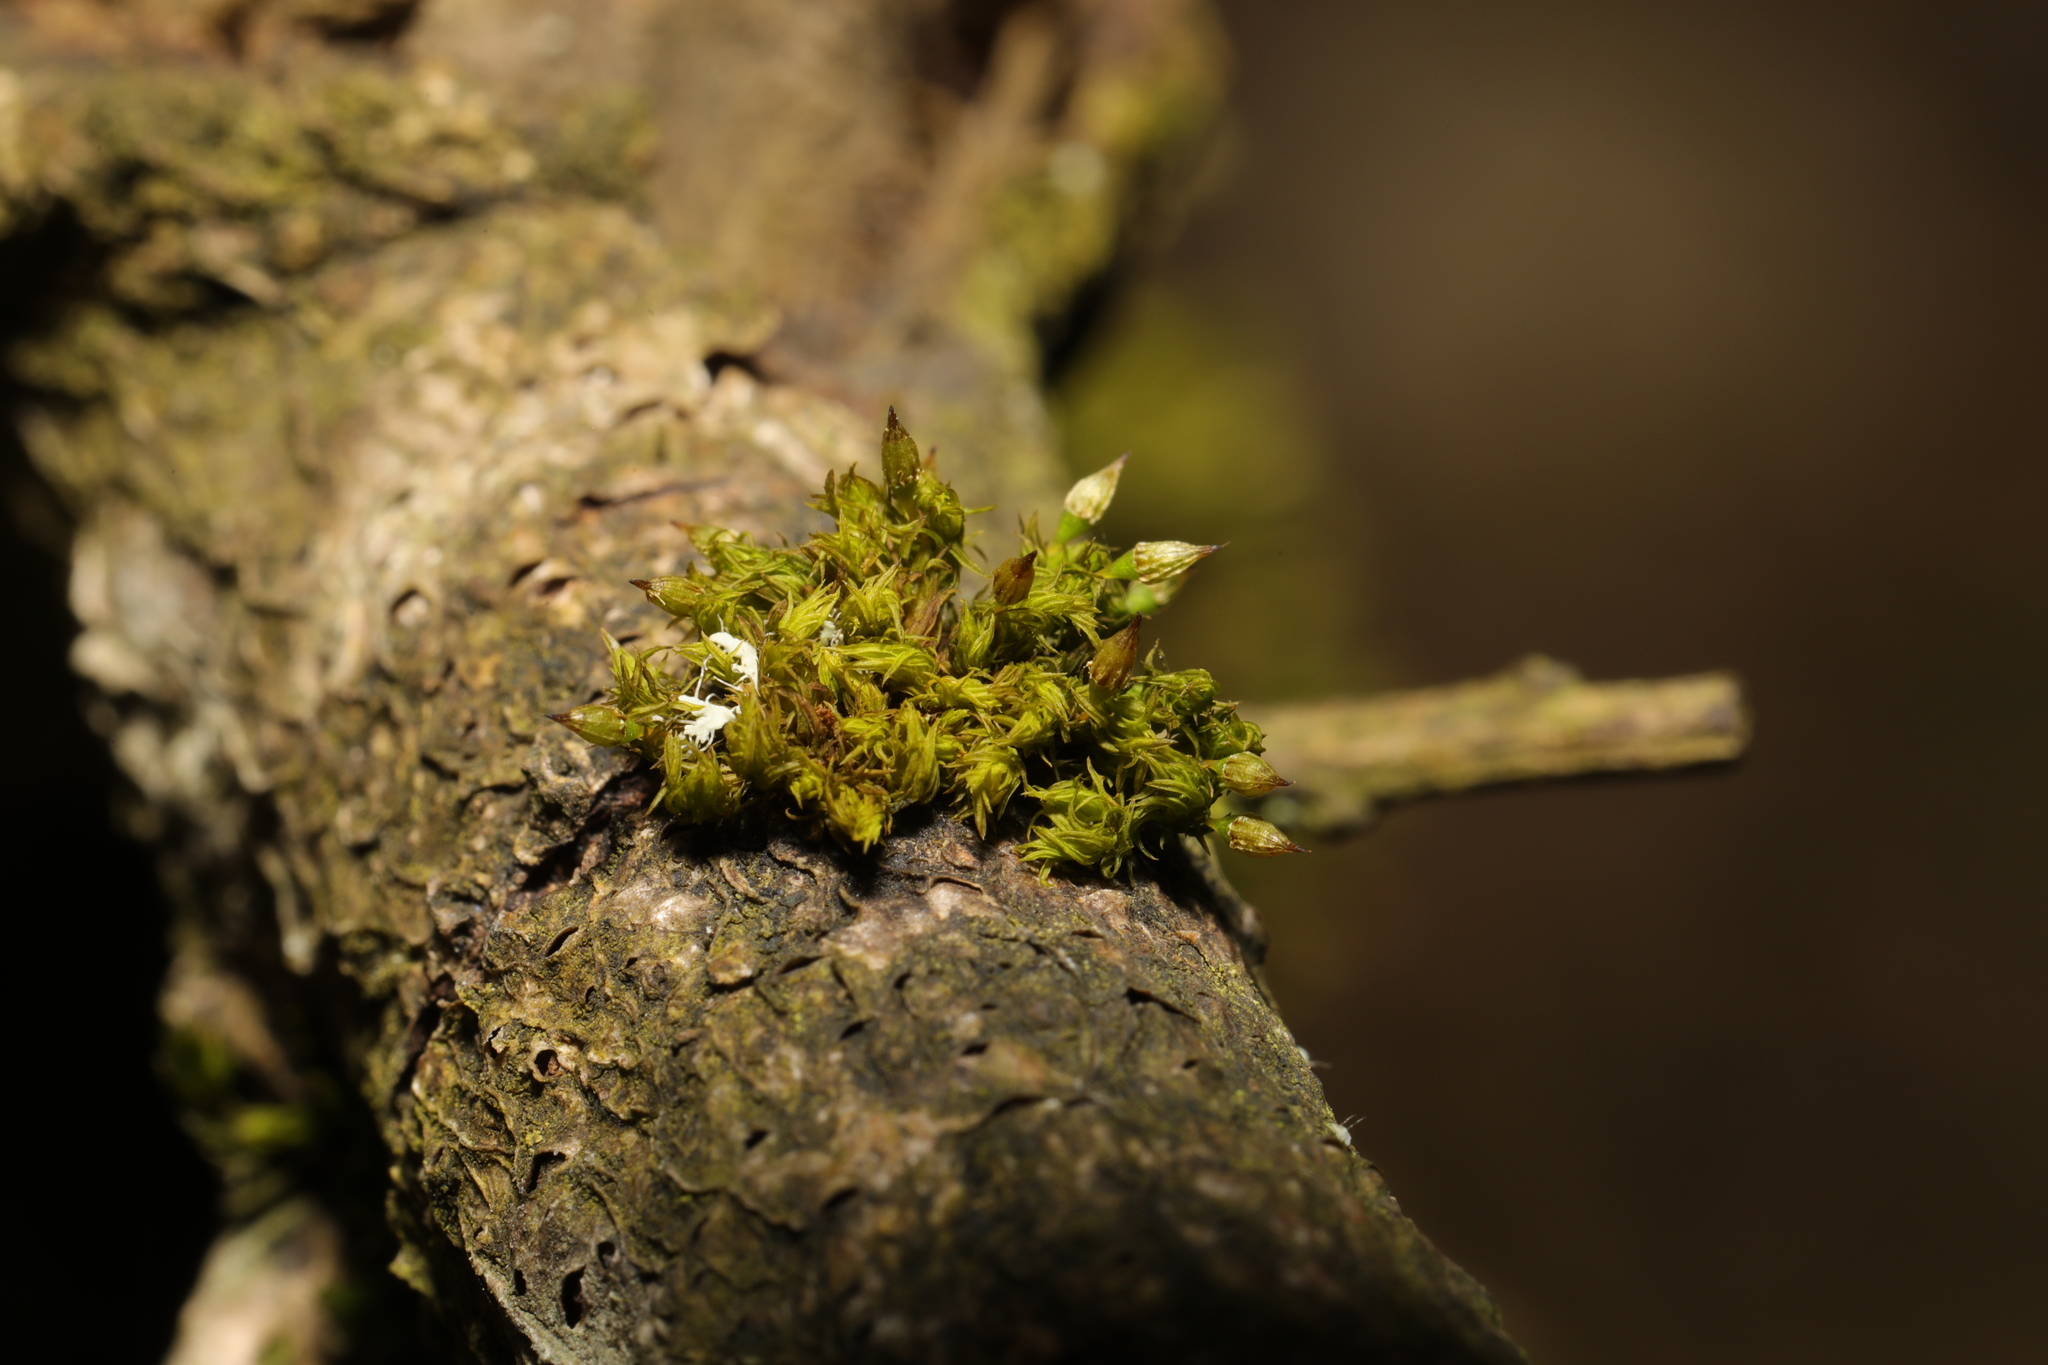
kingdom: Plantae
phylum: Bryophyta
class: Bryopsida
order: Orthotrichales
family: Orthotrichaceae
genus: Orthotrichum
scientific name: Orthotrichum pulchellum
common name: Elegant bristle-moss
